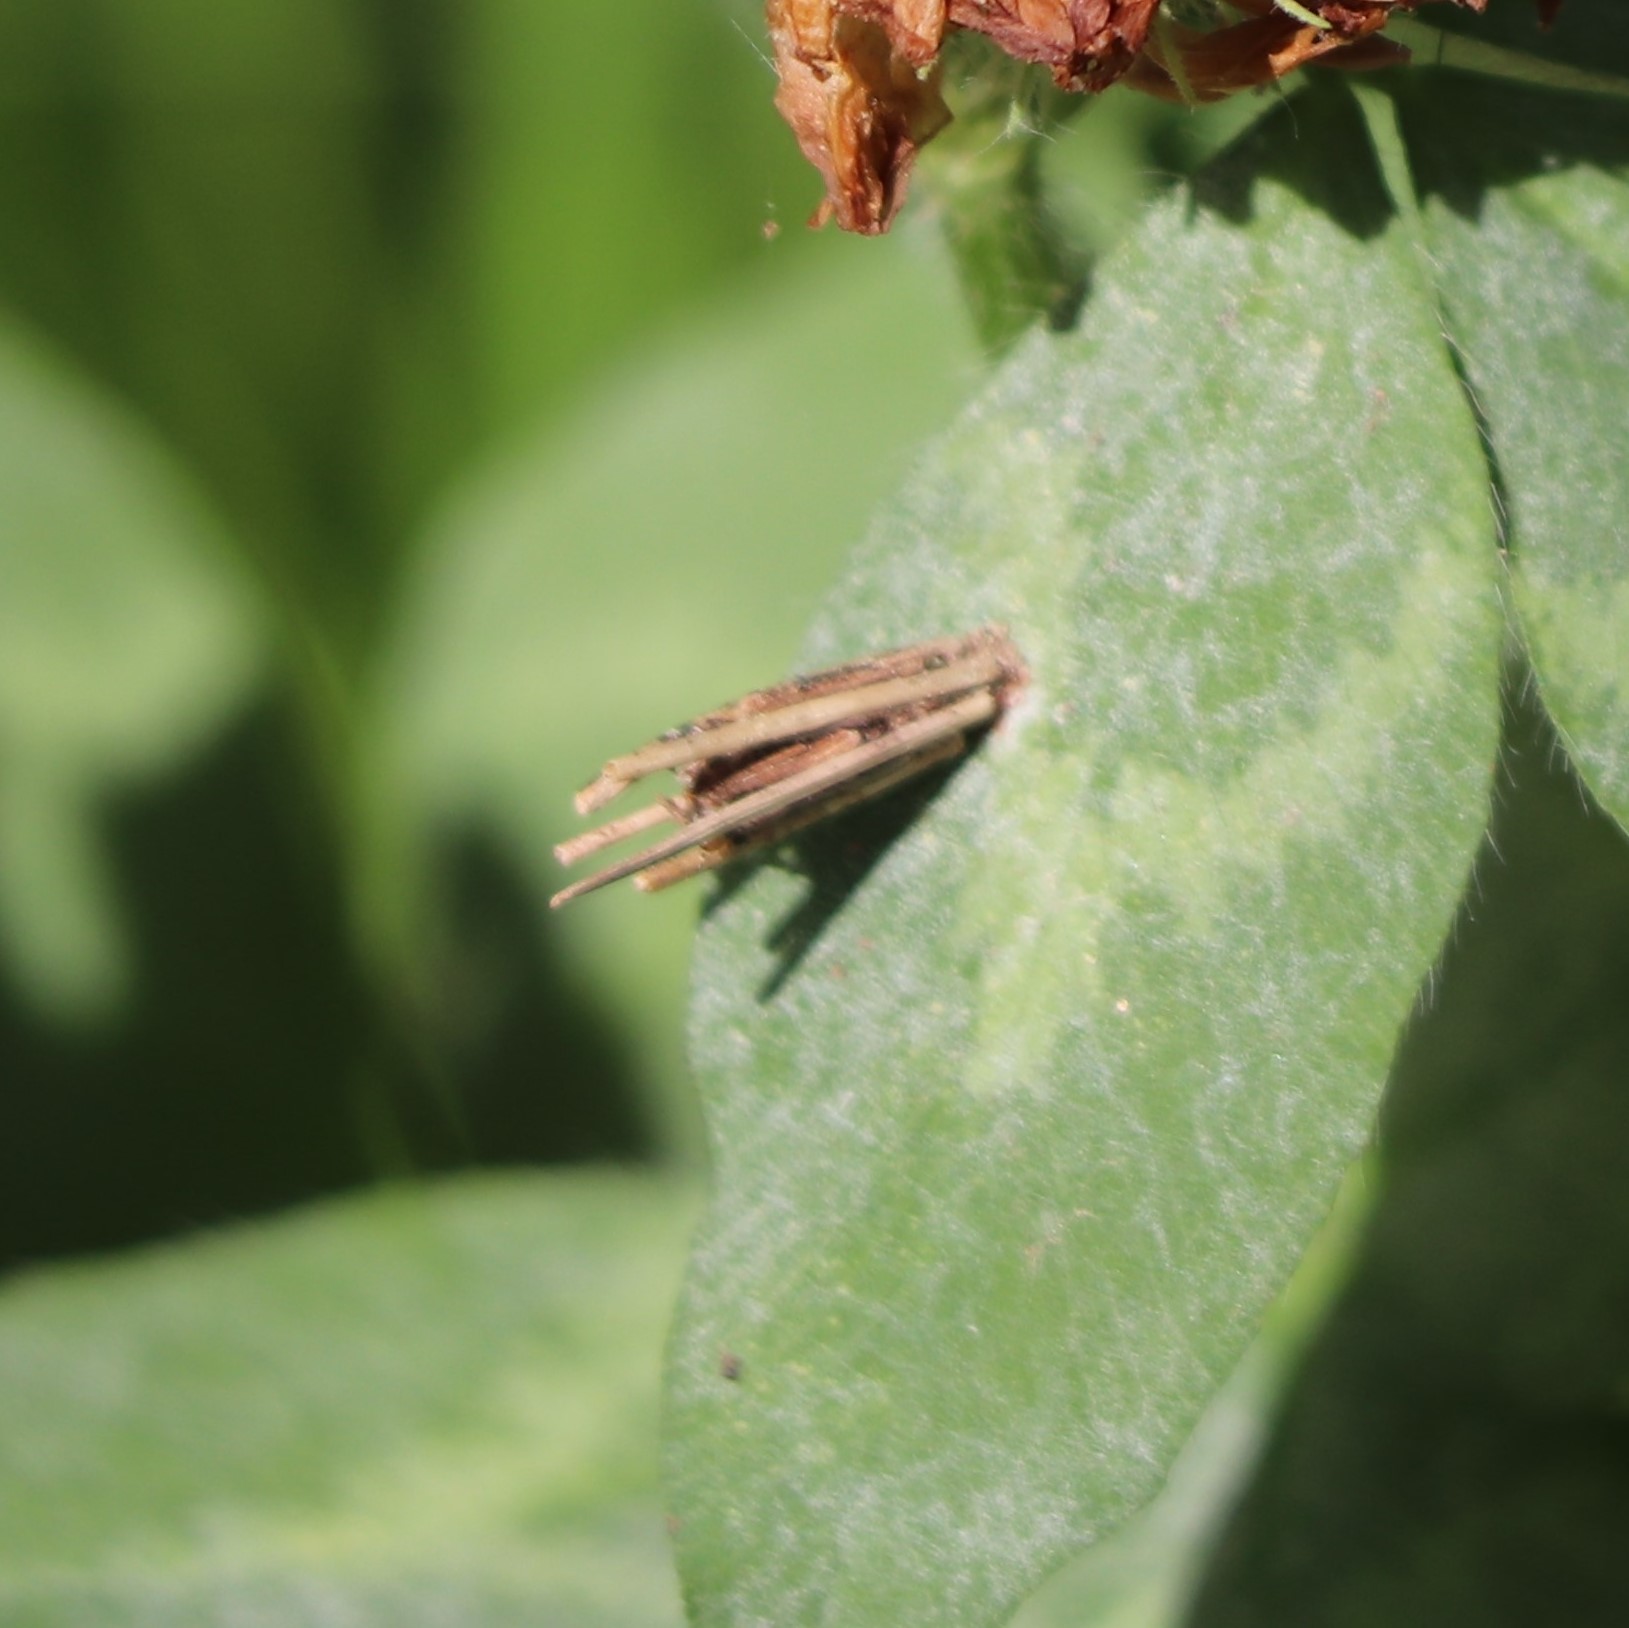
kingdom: Animalia
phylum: Arthropoda
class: Insecta
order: Lepidoptera
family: Psychidae
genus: Psyche
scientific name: Psyche casta
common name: Common sweep
